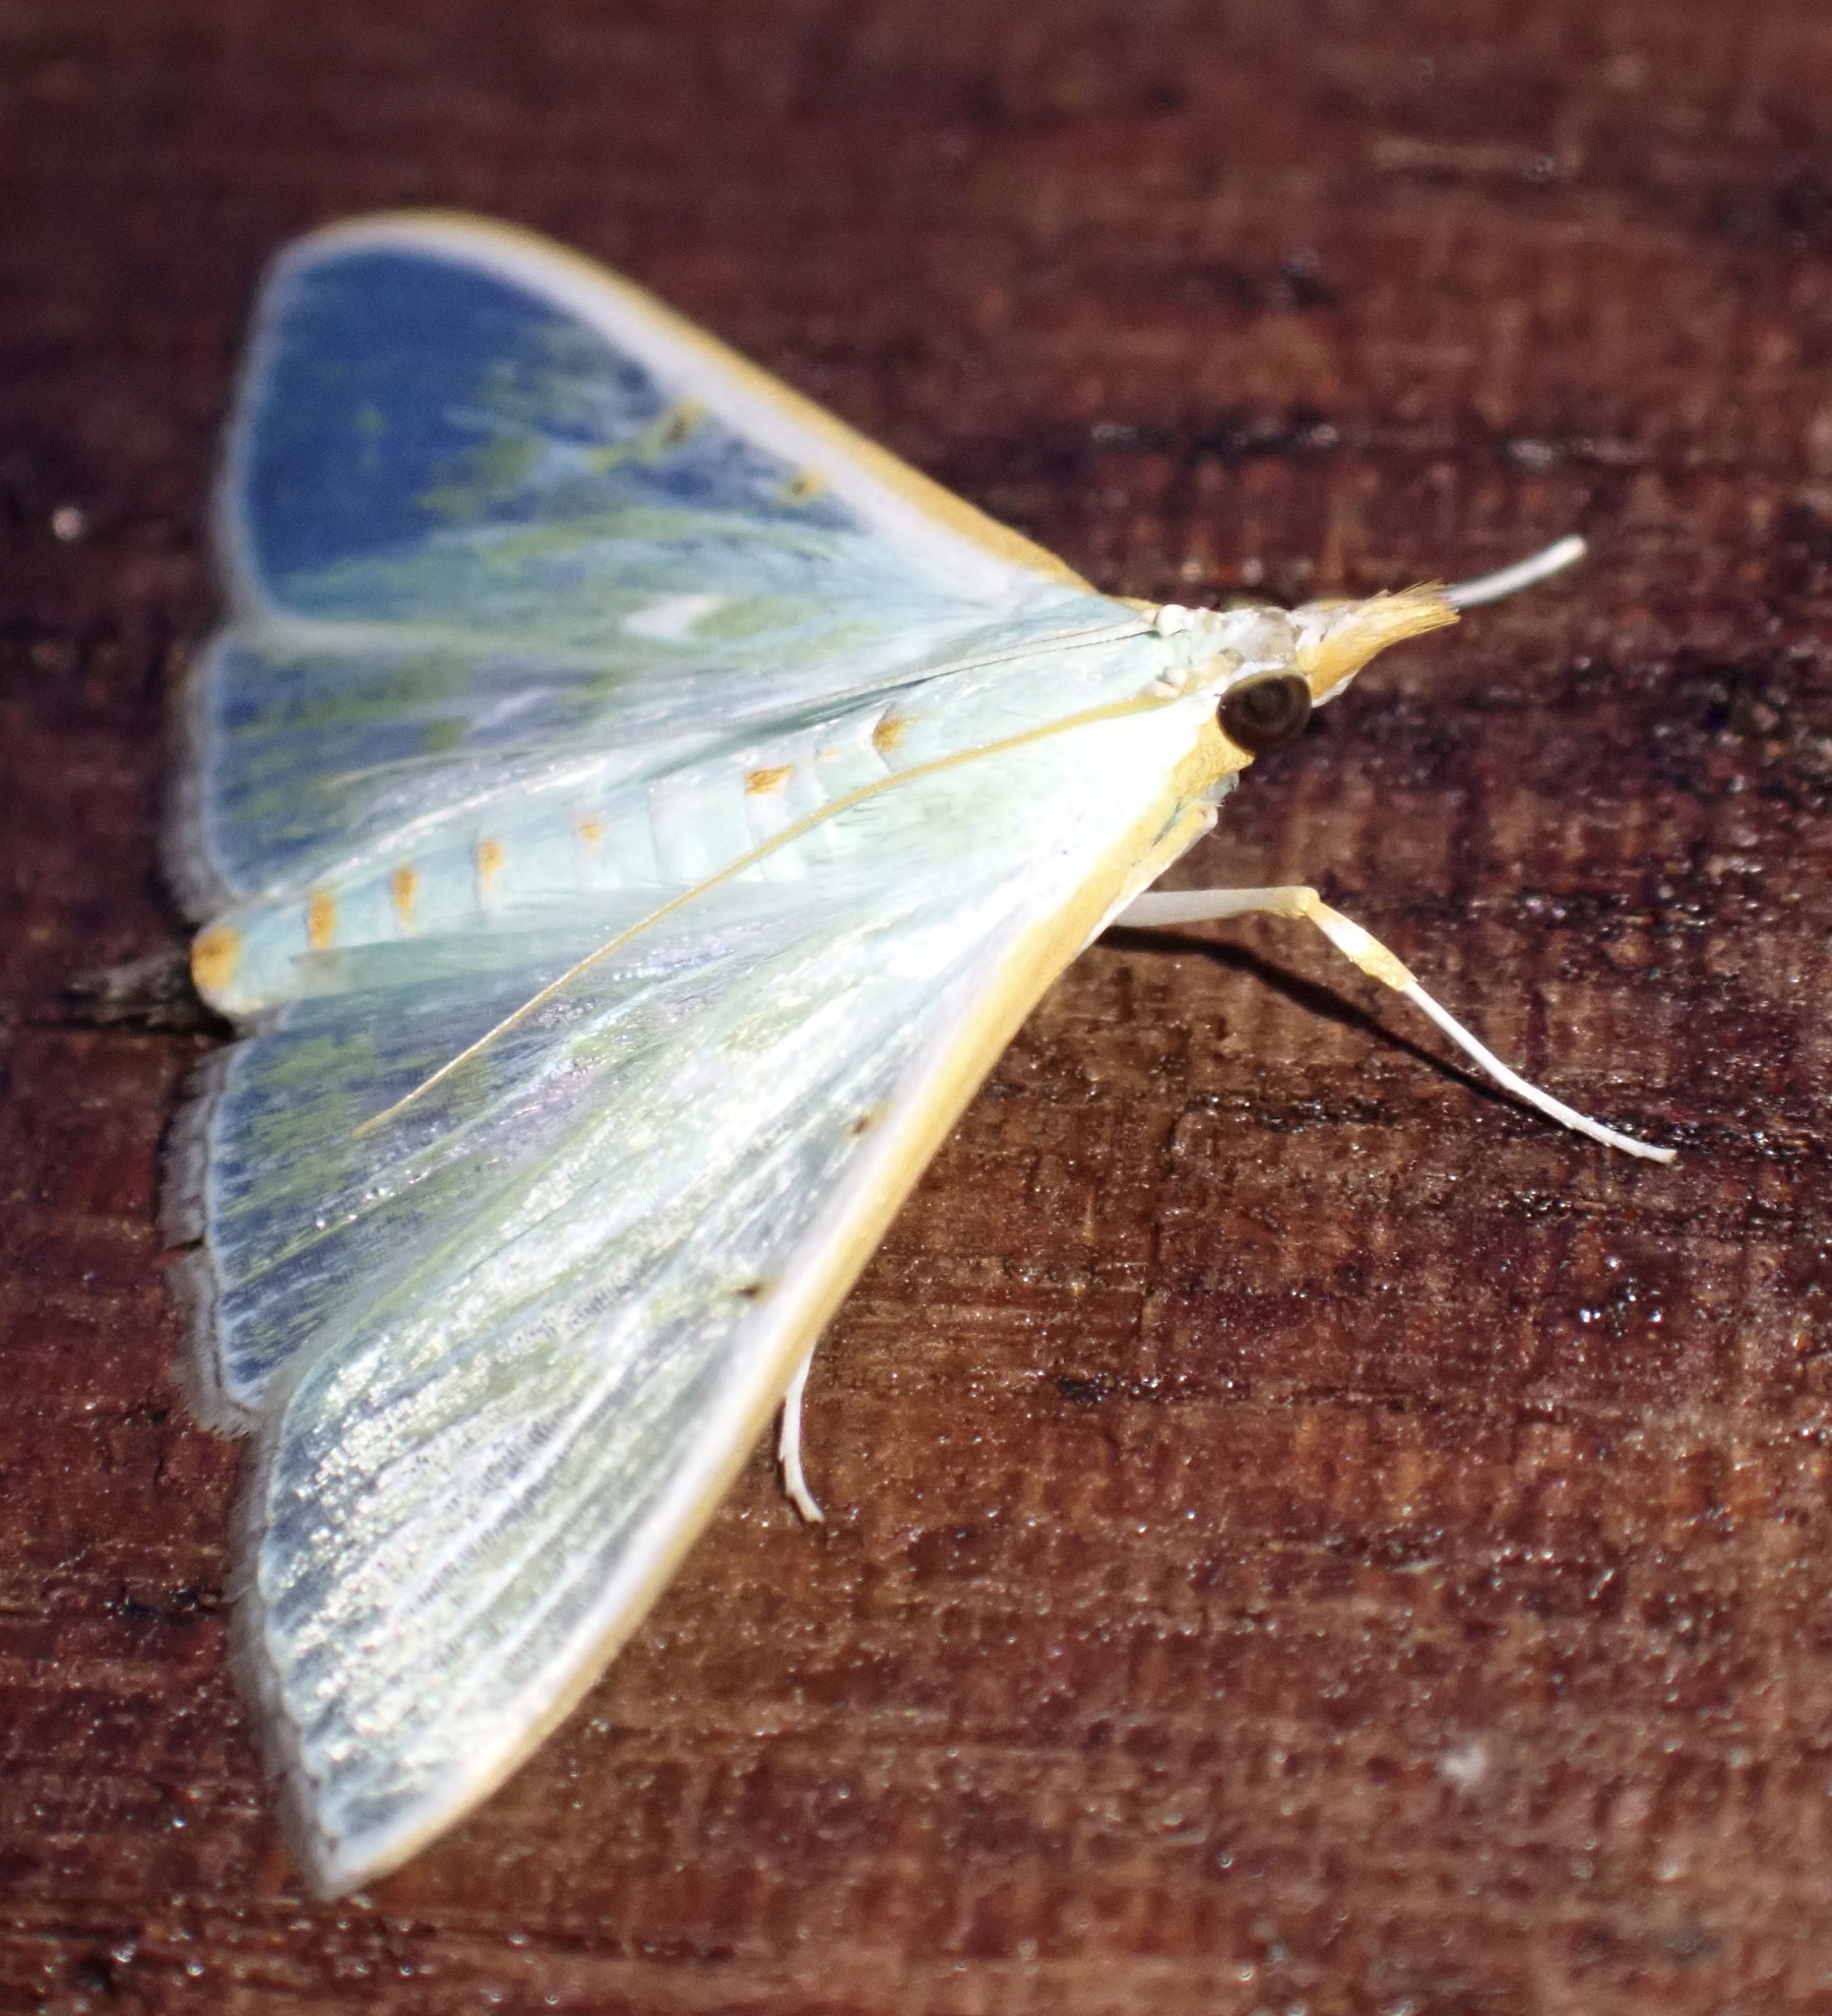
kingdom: Animalia
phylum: Arthropoda
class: Insecta
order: Lepidoptera
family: Crambidae
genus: Arthroschista
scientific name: Arthroschista hilaralis
